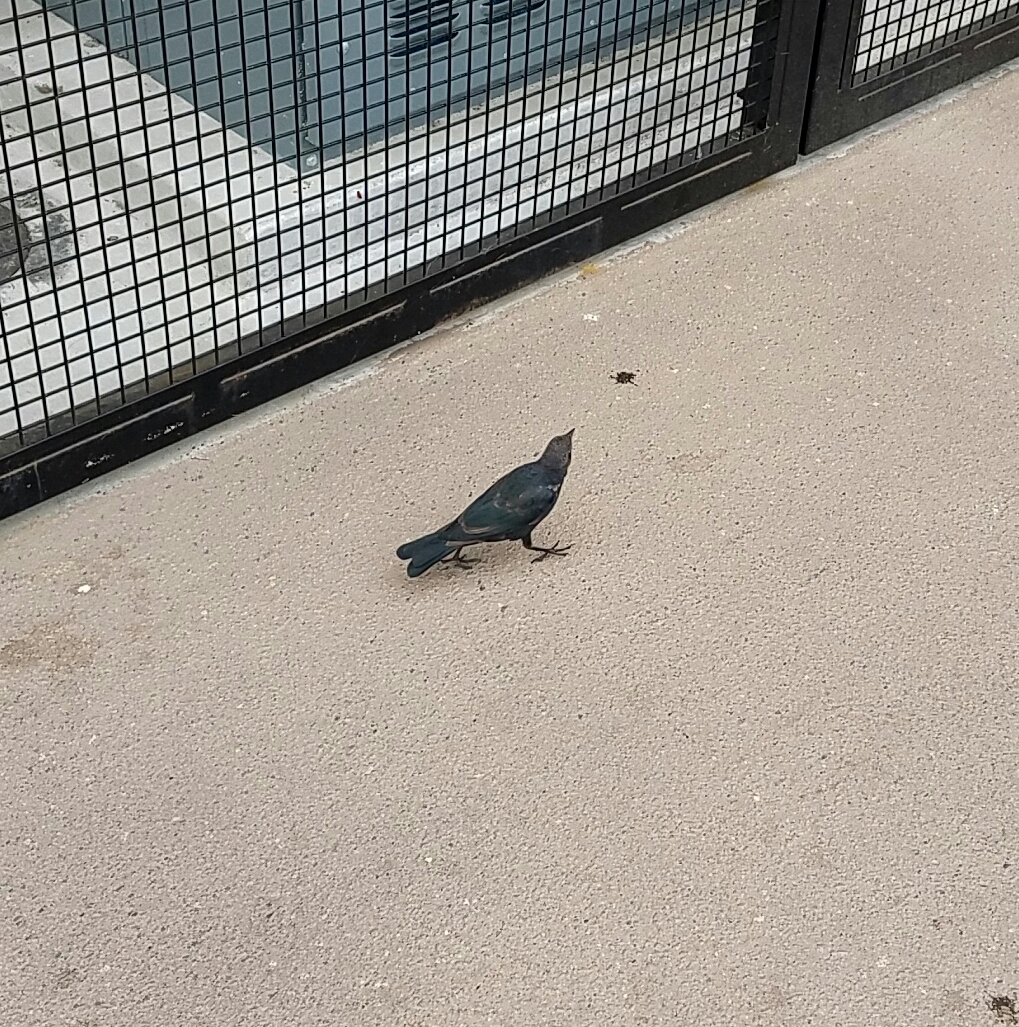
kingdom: Animalia
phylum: Chordata
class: Aves
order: Passeriformes
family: Icteridae
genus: Euphagus
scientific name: Euphagus cyanocephalus
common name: Brewer's blackbird
